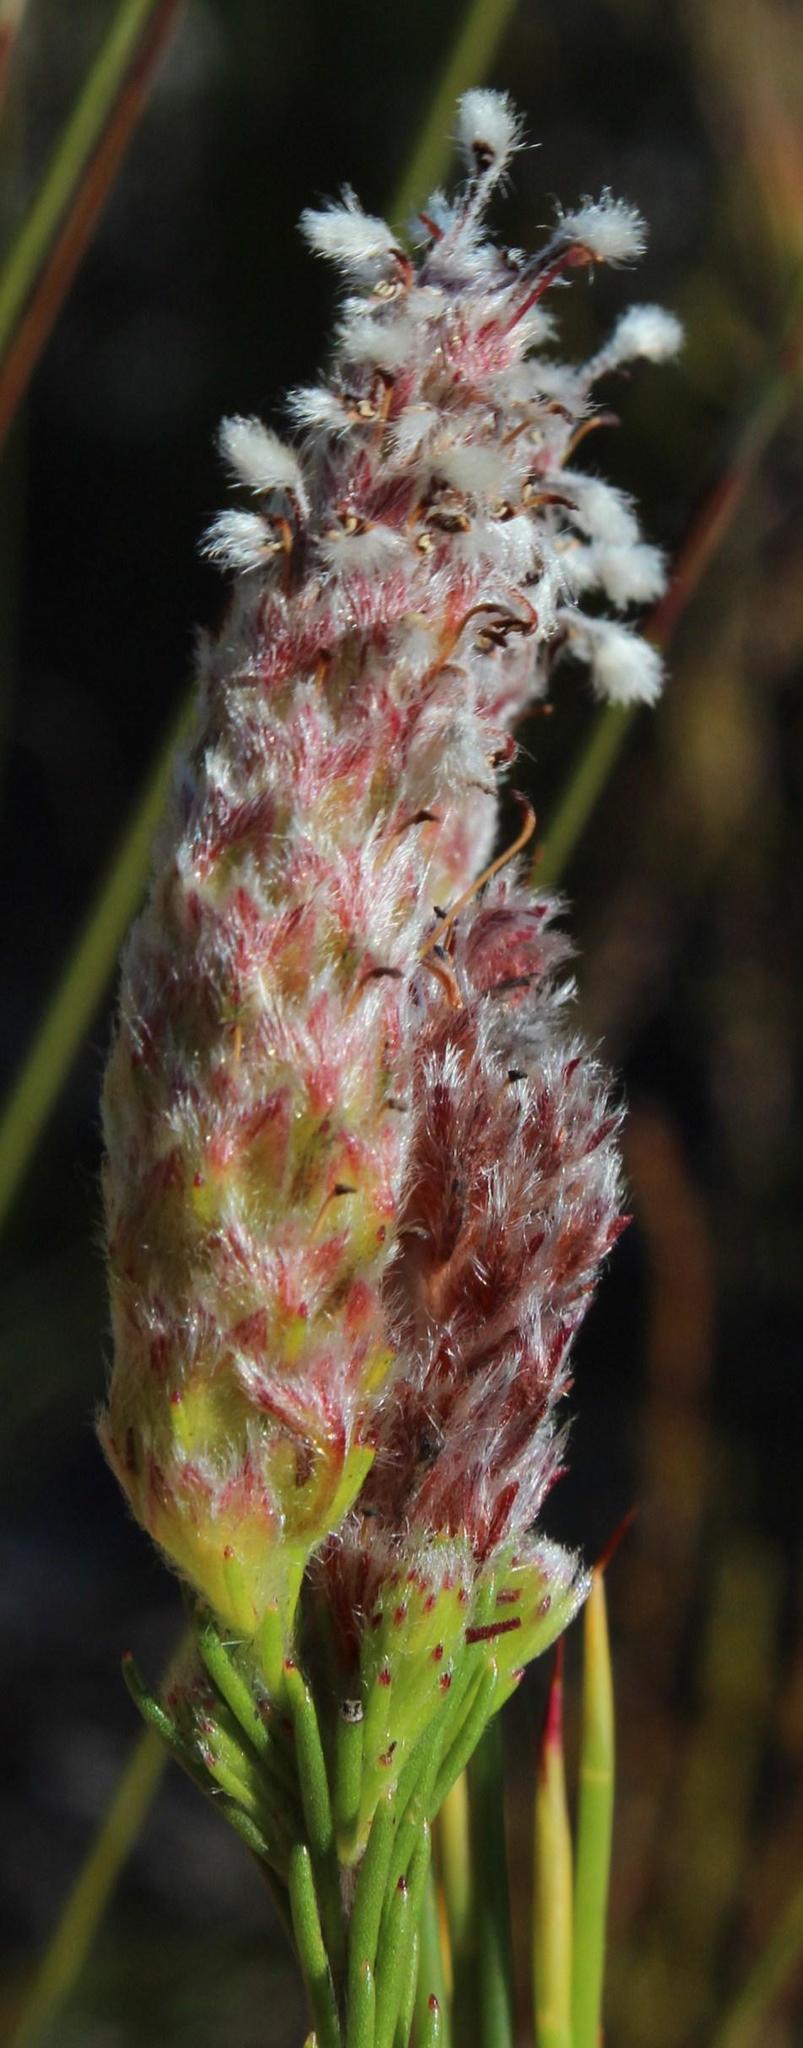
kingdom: Plantae
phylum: Tracheophyta
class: Magnoliopsida
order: Proteales
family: Proteaceae
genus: Spatalla
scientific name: Spatalla ericoides
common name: Erica-leaf spoon
